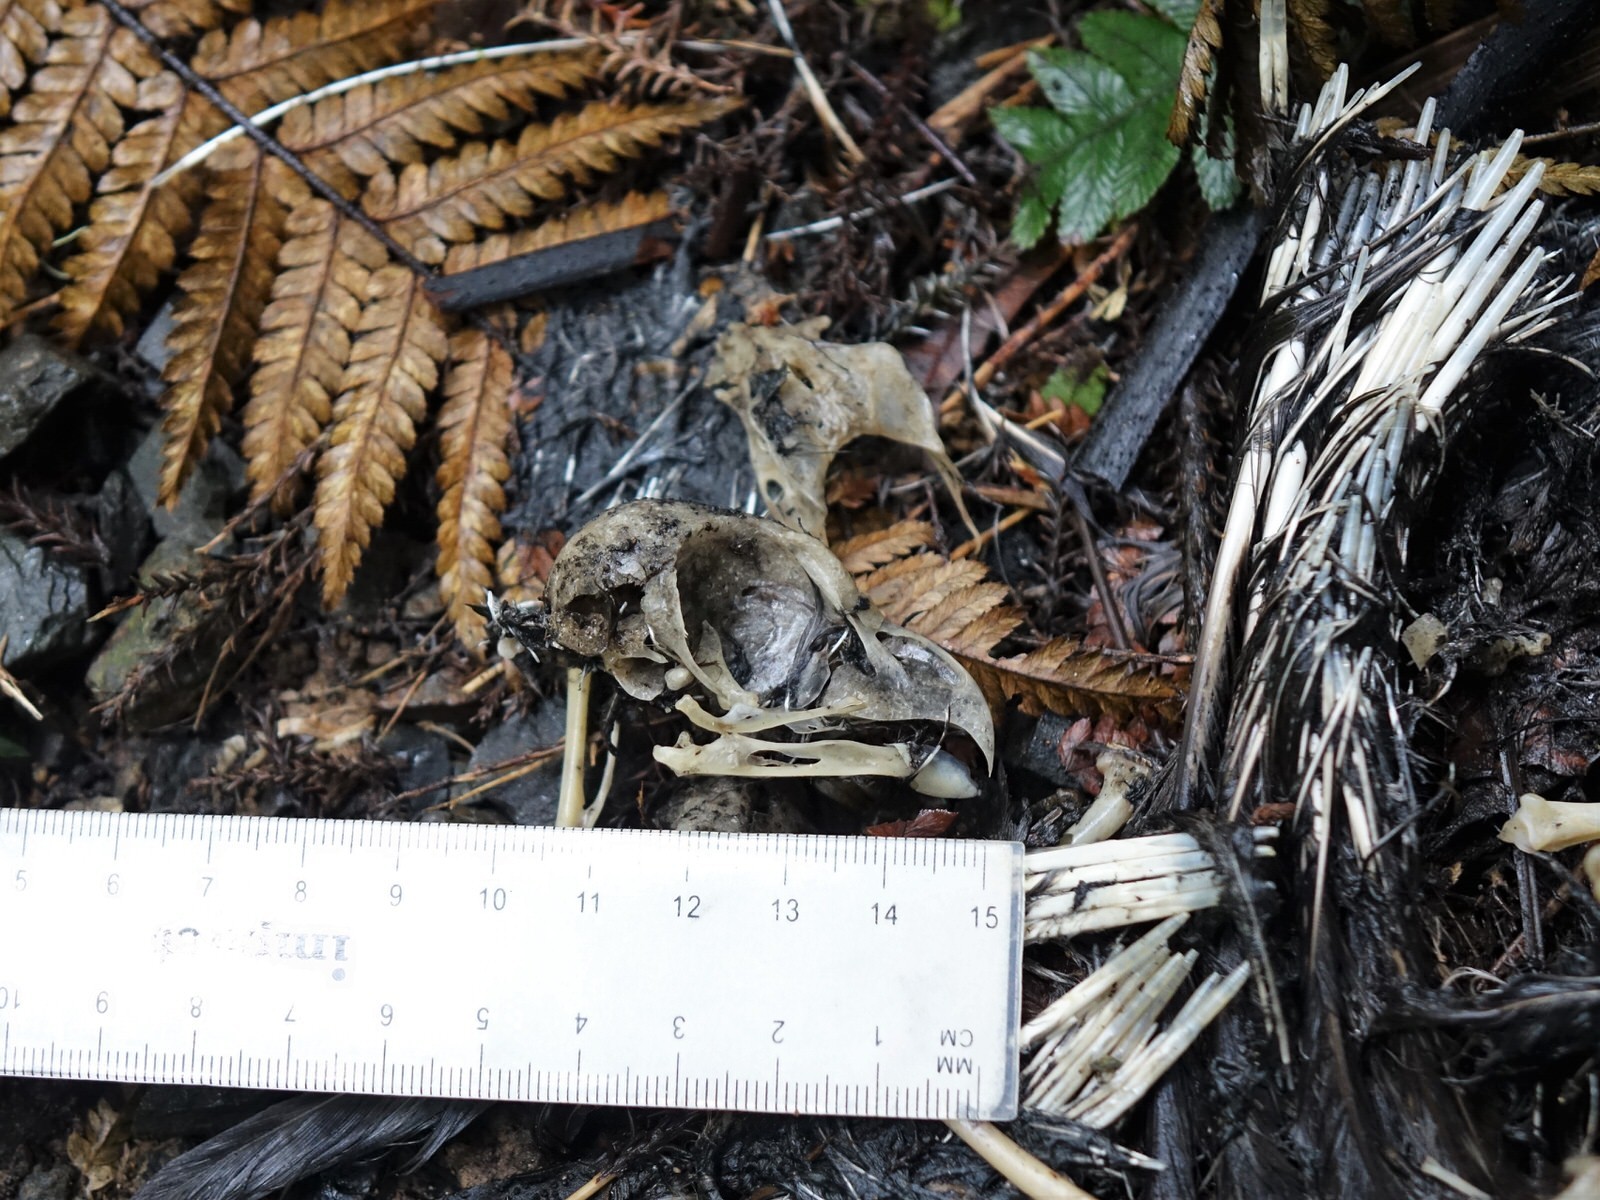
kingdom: Animalia
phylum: Chordata
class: Aves
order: Strigiformes
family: Strigidae
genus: Ninox
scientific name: Ninox novaeseelandiae
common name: Morepork
